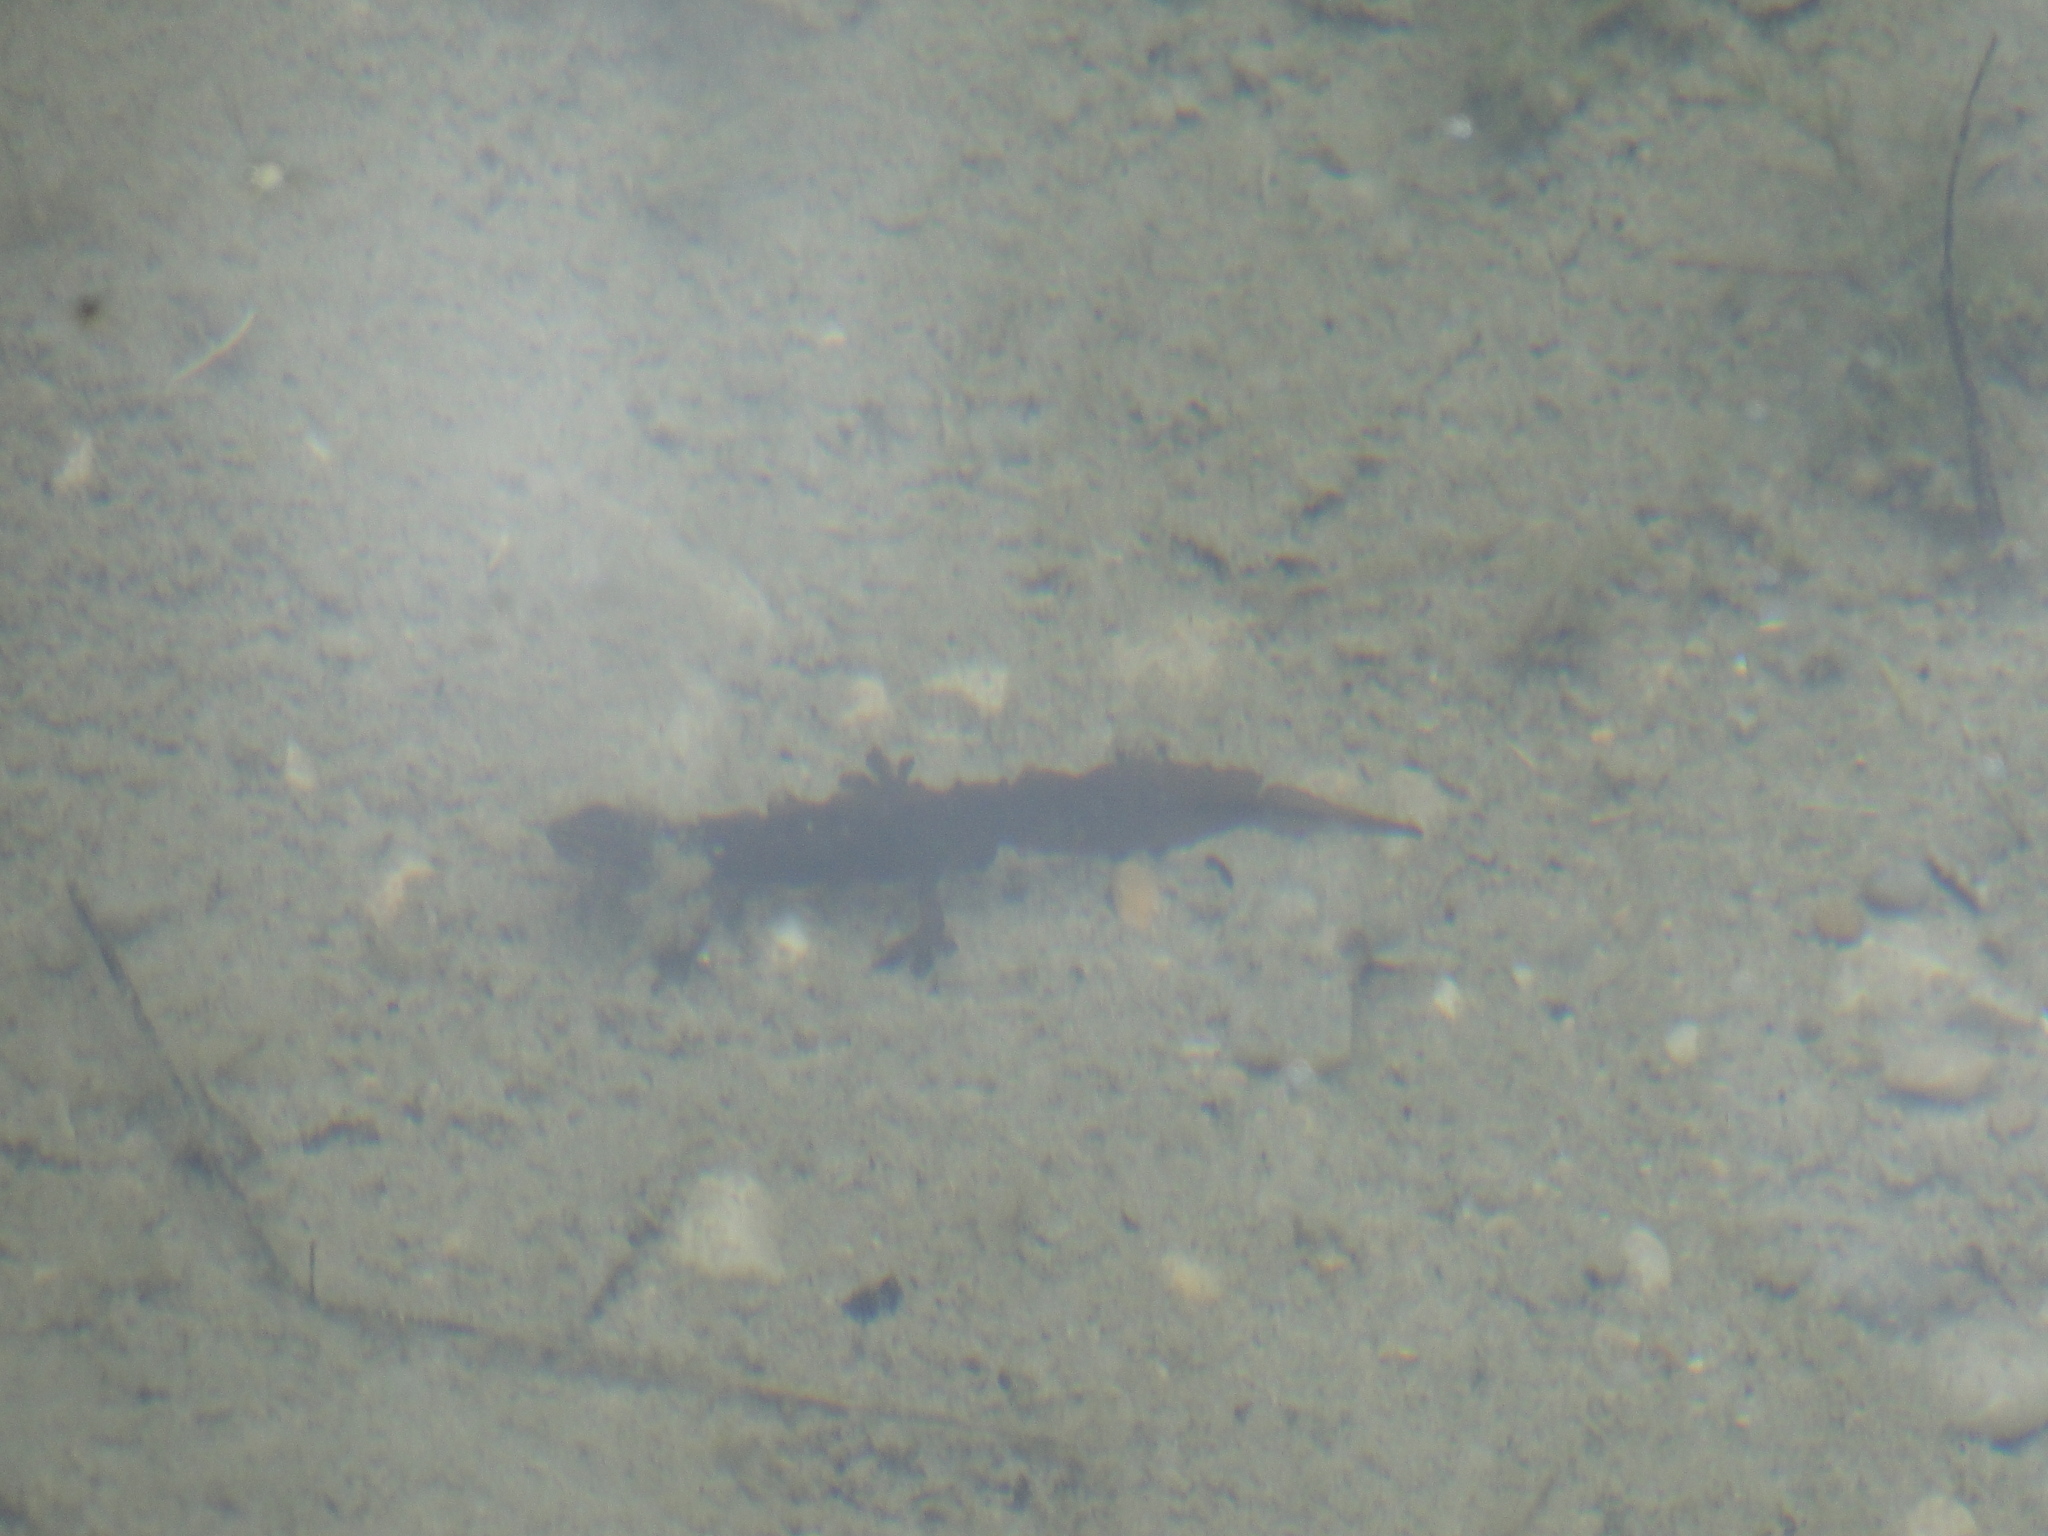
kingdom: Animalia
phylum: Chordata
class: Amphibia
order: Caudata
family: Salamandridae
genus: Lissotriton
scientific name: Lissotriton vulgaris
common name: Smooth newt
